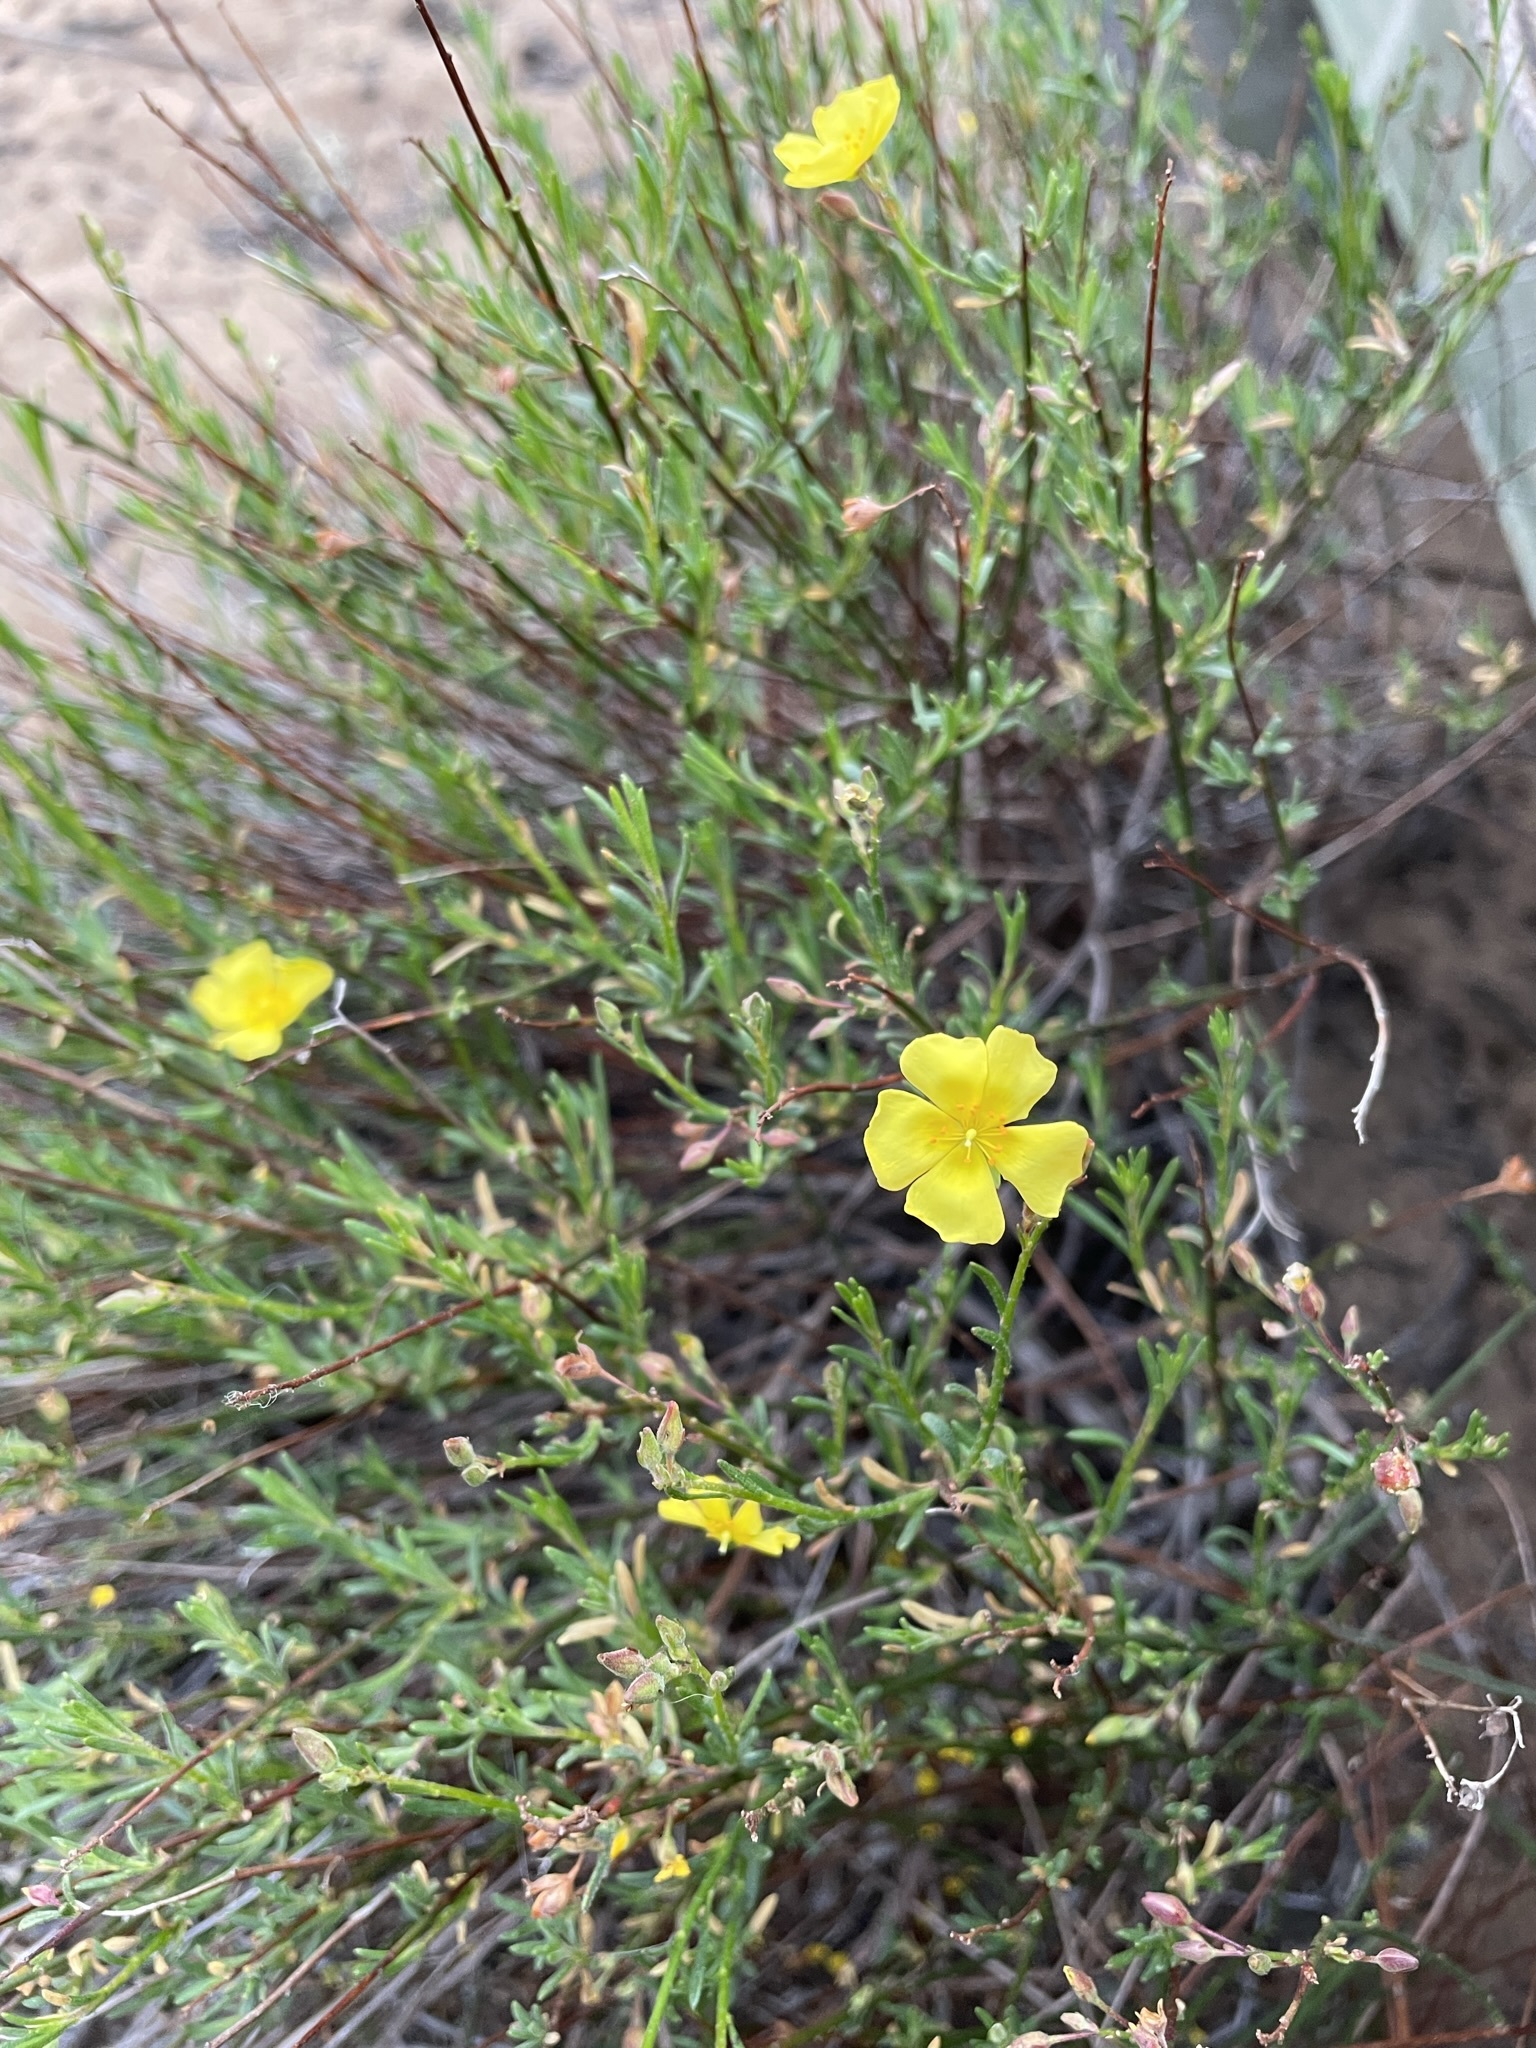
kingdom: Plantae
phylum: Tracheophyta
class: Magnoliopsida
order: Malvales
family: Cistaceae
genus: Crocanthemum
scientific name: Crocanthemum scoparium
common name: Broom-rose
